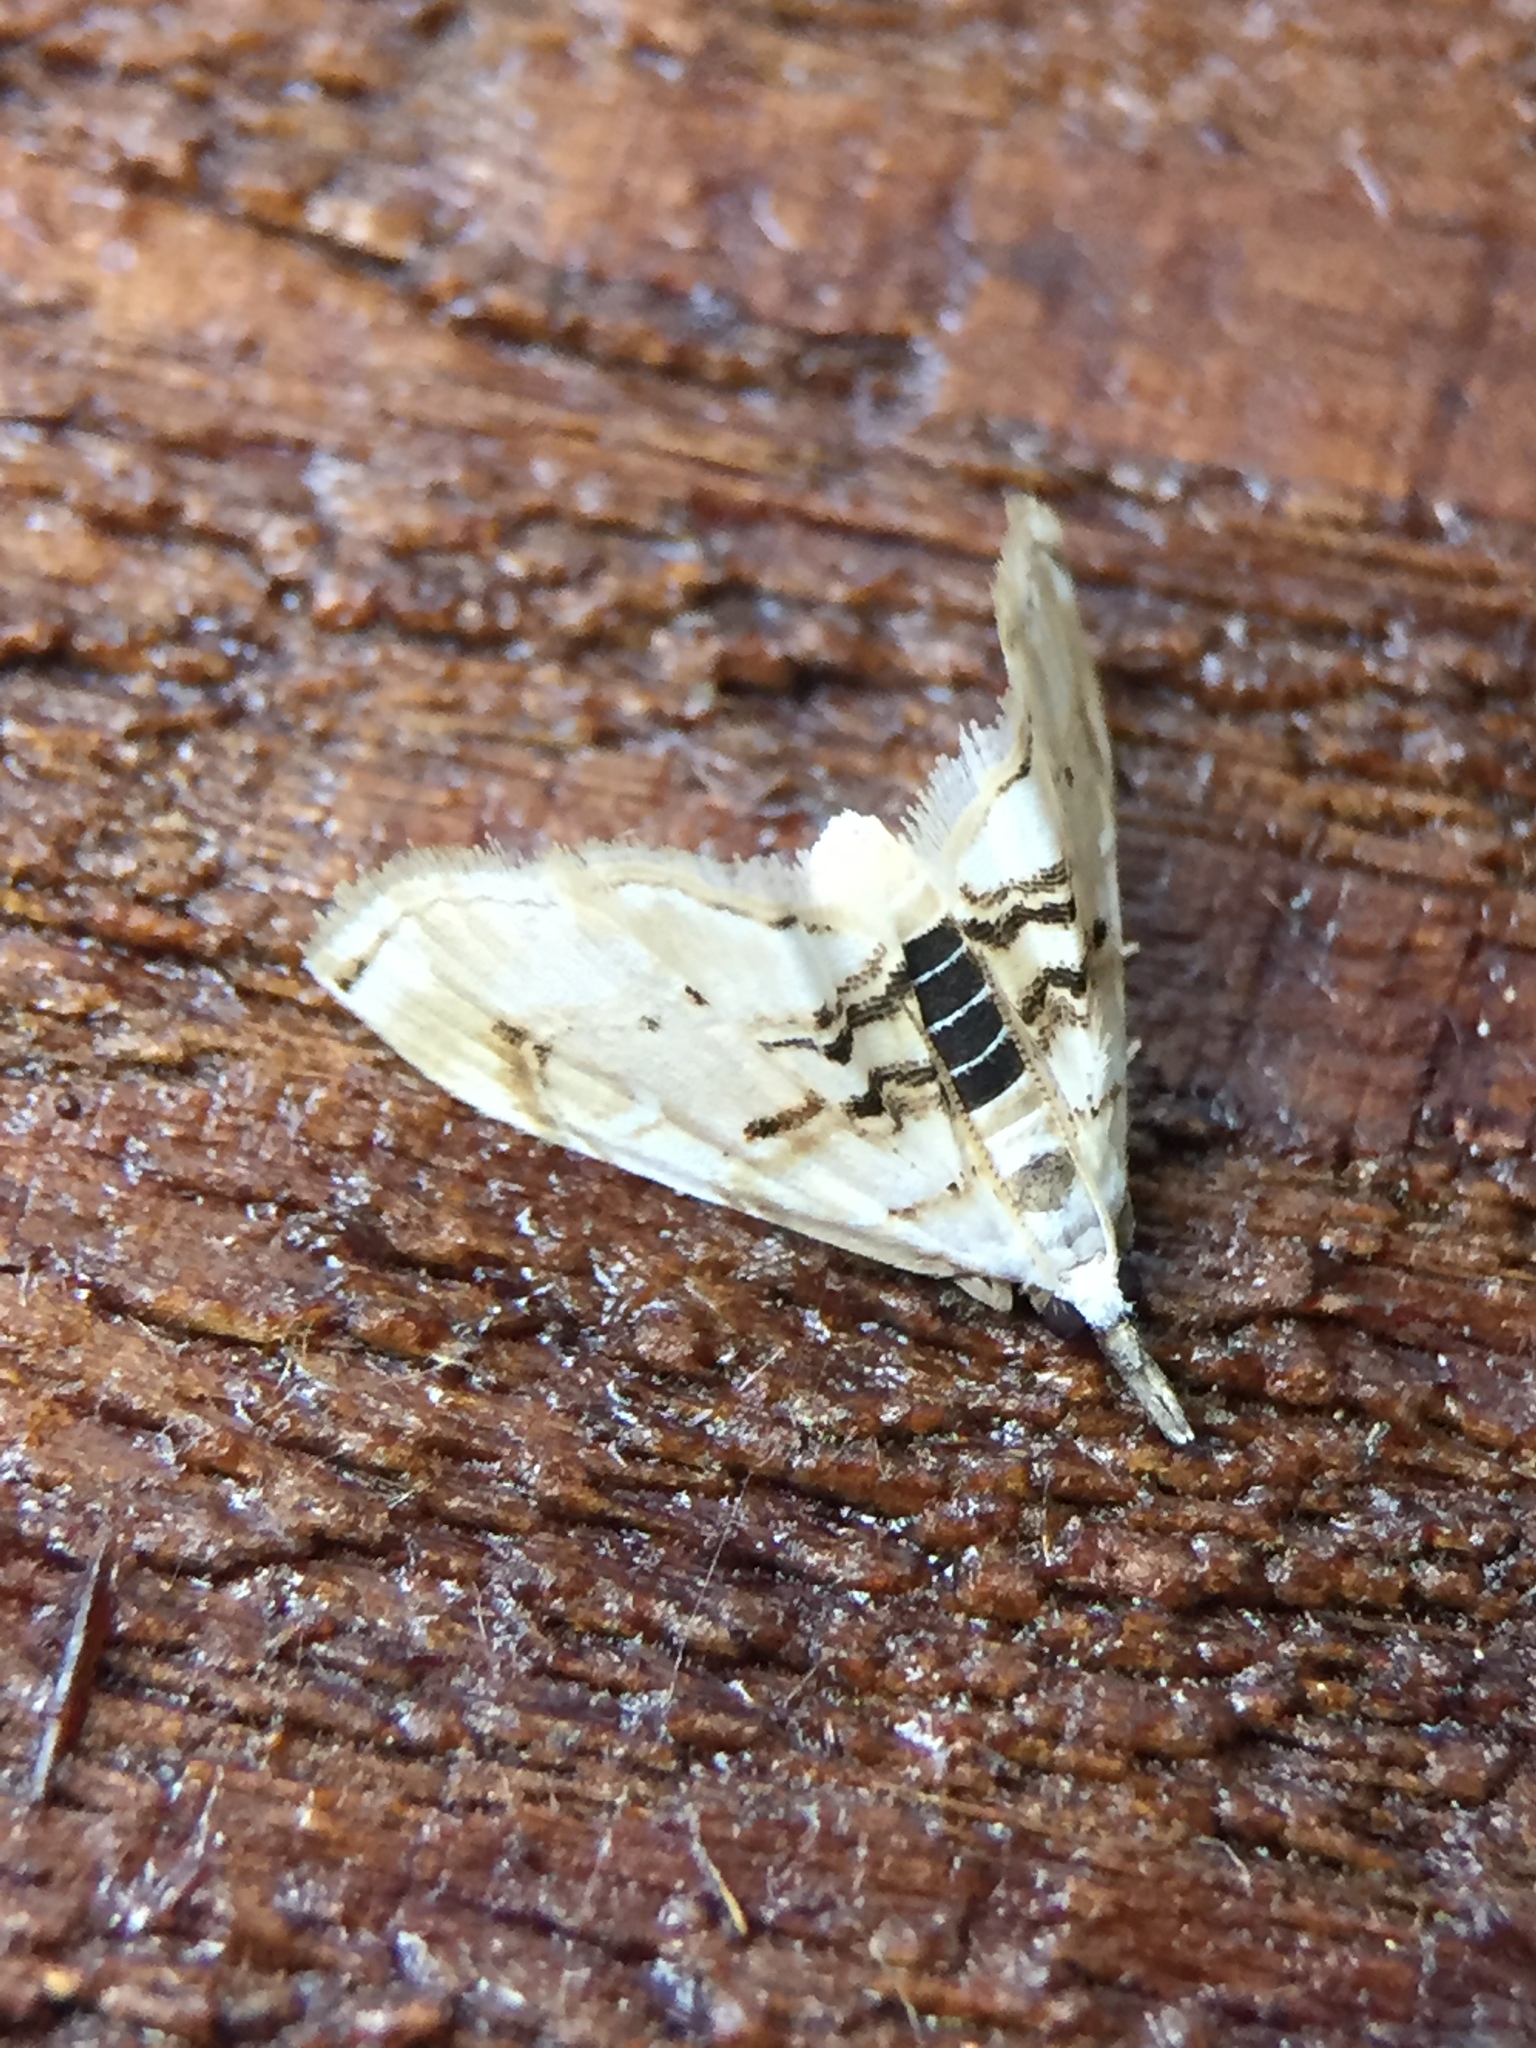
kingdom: Animalia
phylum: Arthropoda
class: Insecta
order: Lepidoptera
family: Crambidae
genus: Trichophysetis
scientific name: Trichophysetis
